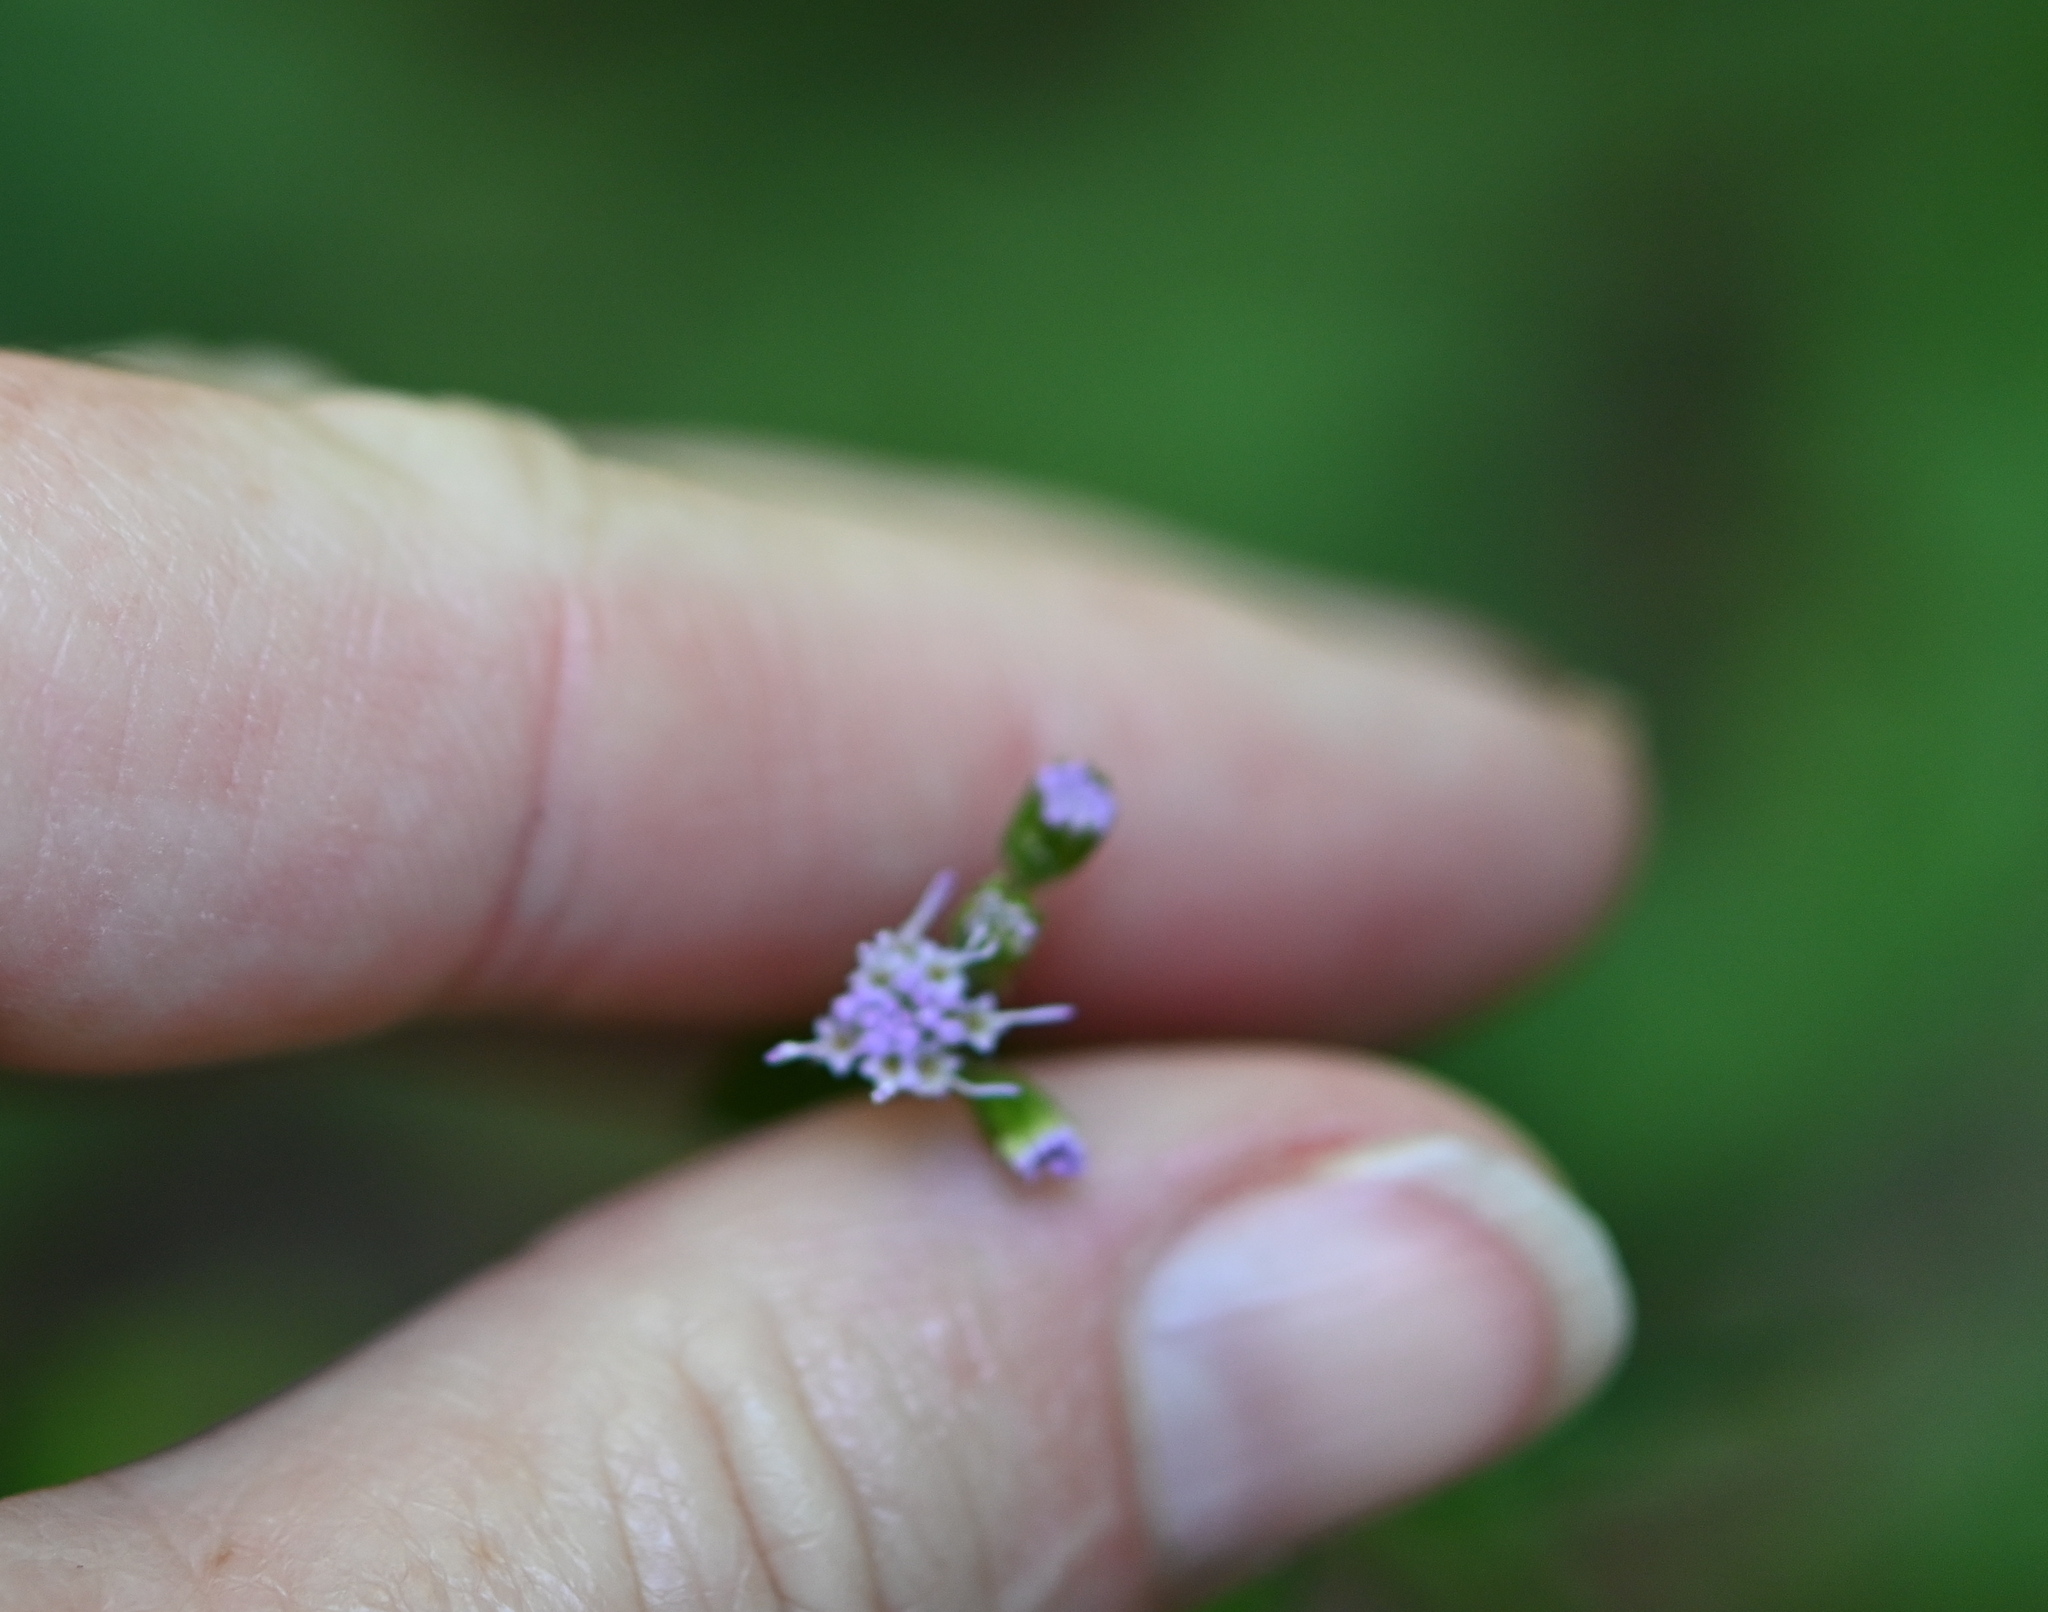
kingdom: Plantae
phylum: Tracheophyta
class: Magnoliopsida
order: Asterales
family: Asteraceae
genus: Conoclinium
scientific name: Conoclinium coelestinum
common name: Blue mistflower
